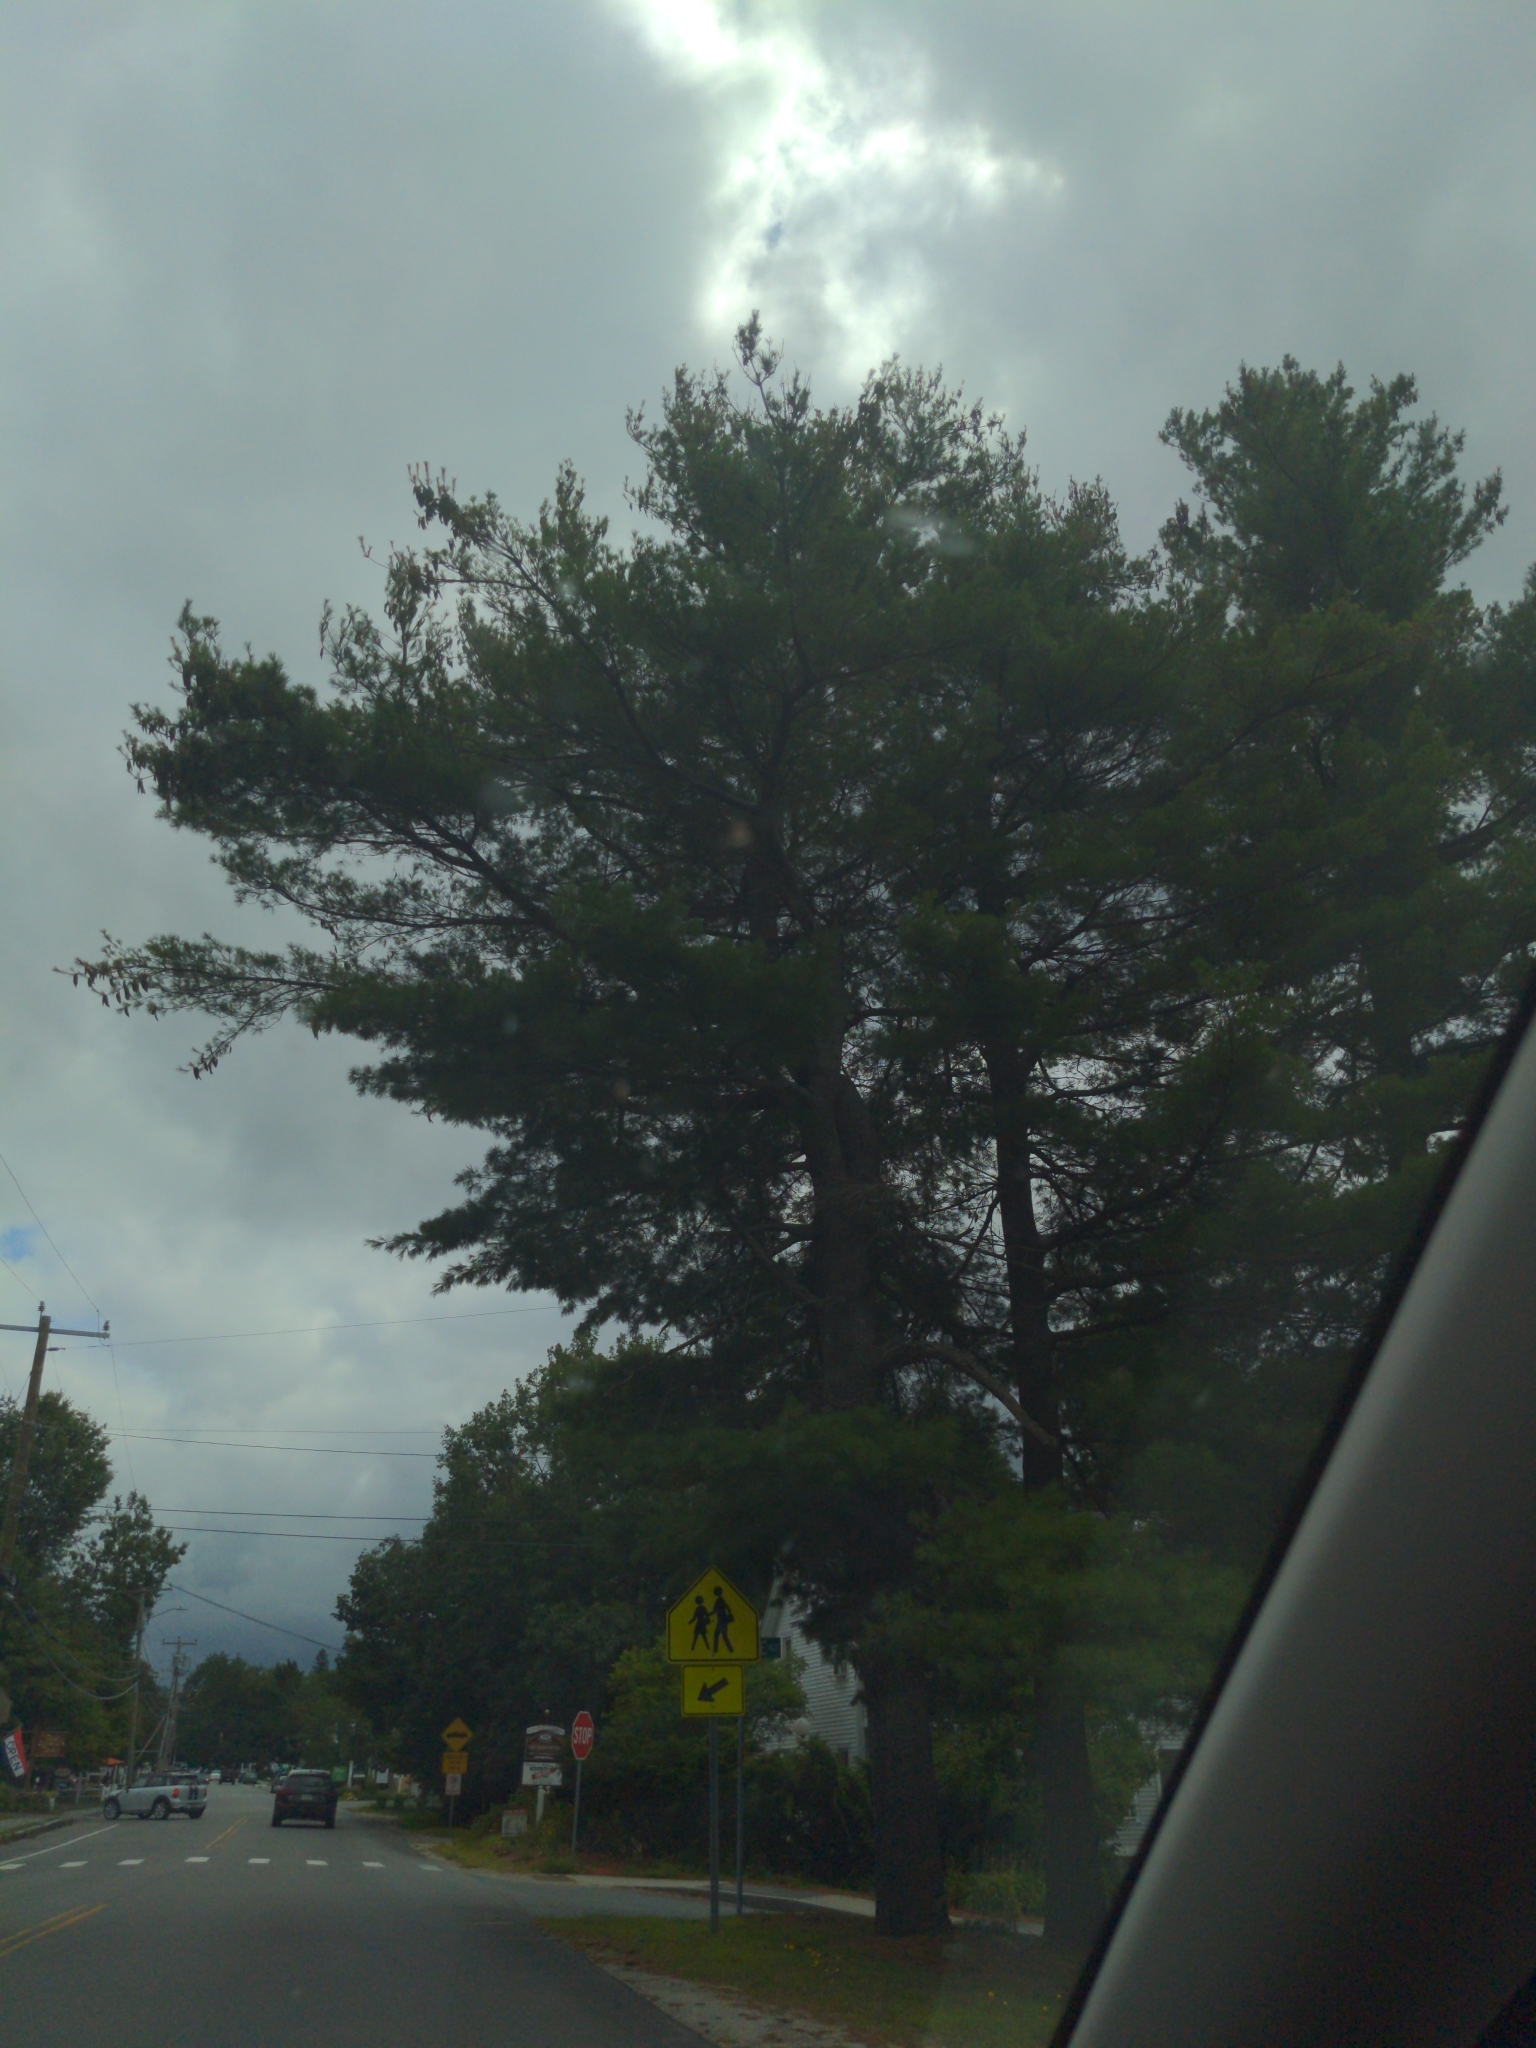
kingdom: Plantae
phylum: Tracheophyta
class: Pinopsida
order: Pinales
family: Pinaceae
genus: Pinus
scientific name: Pinus strobus
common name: Weymouth pine
